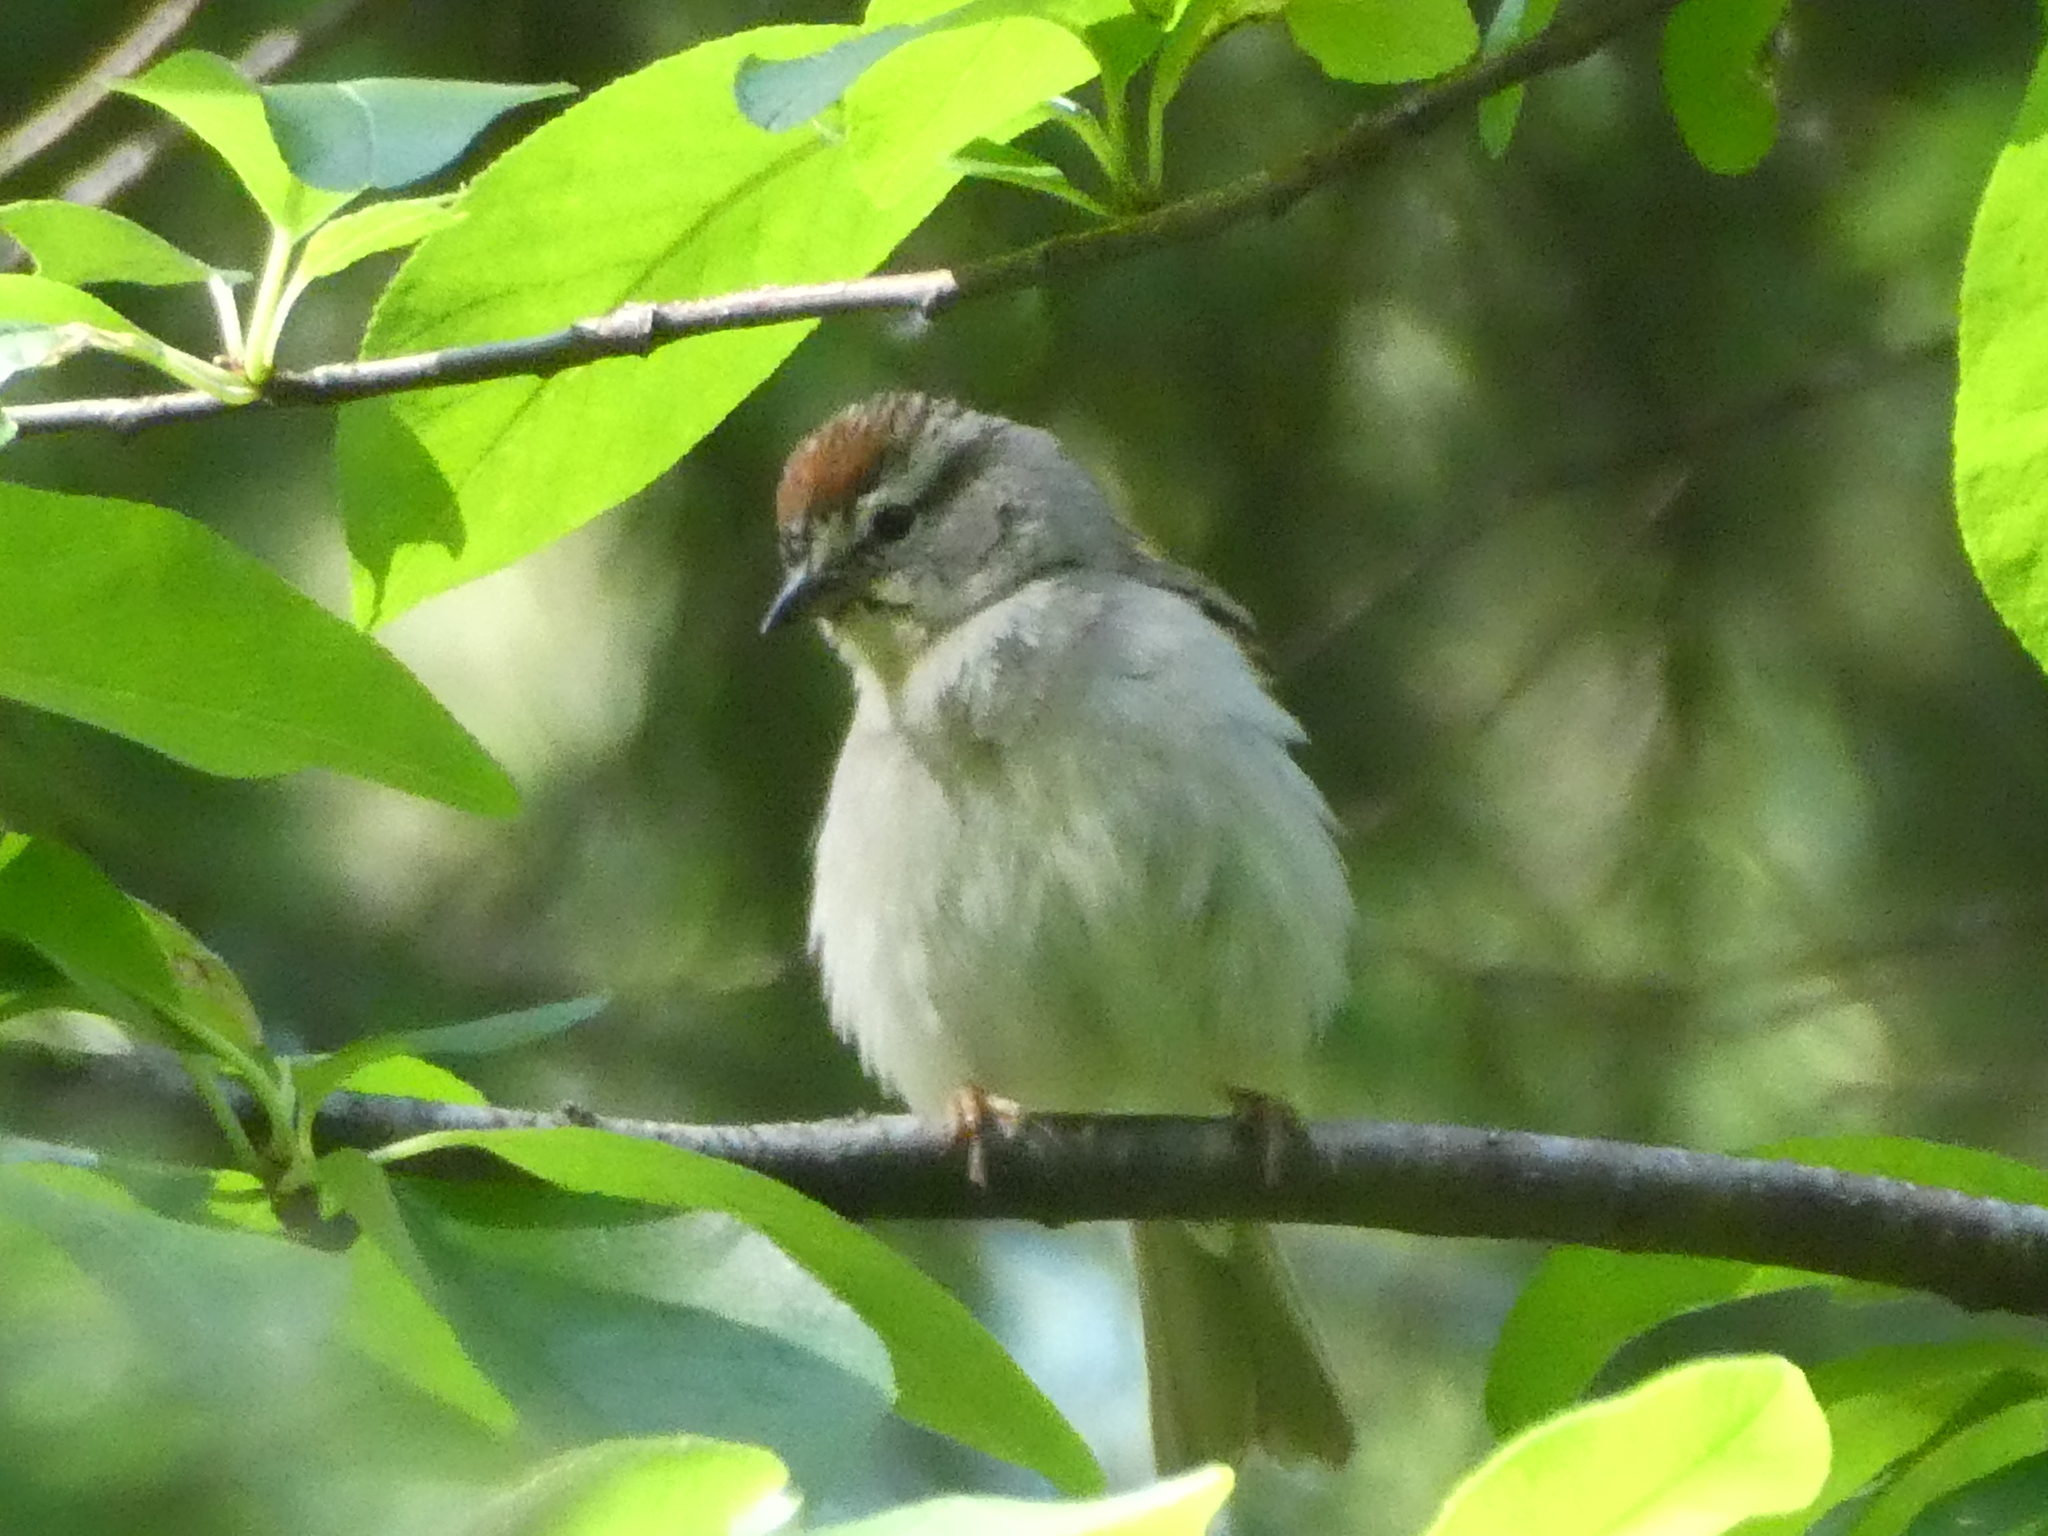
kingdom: Animalia
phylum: Chordata
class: Aves
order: Passeriformes
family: Passerellidae
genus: Spizella
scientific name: Spizella passerina
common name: Chipping sparrow
